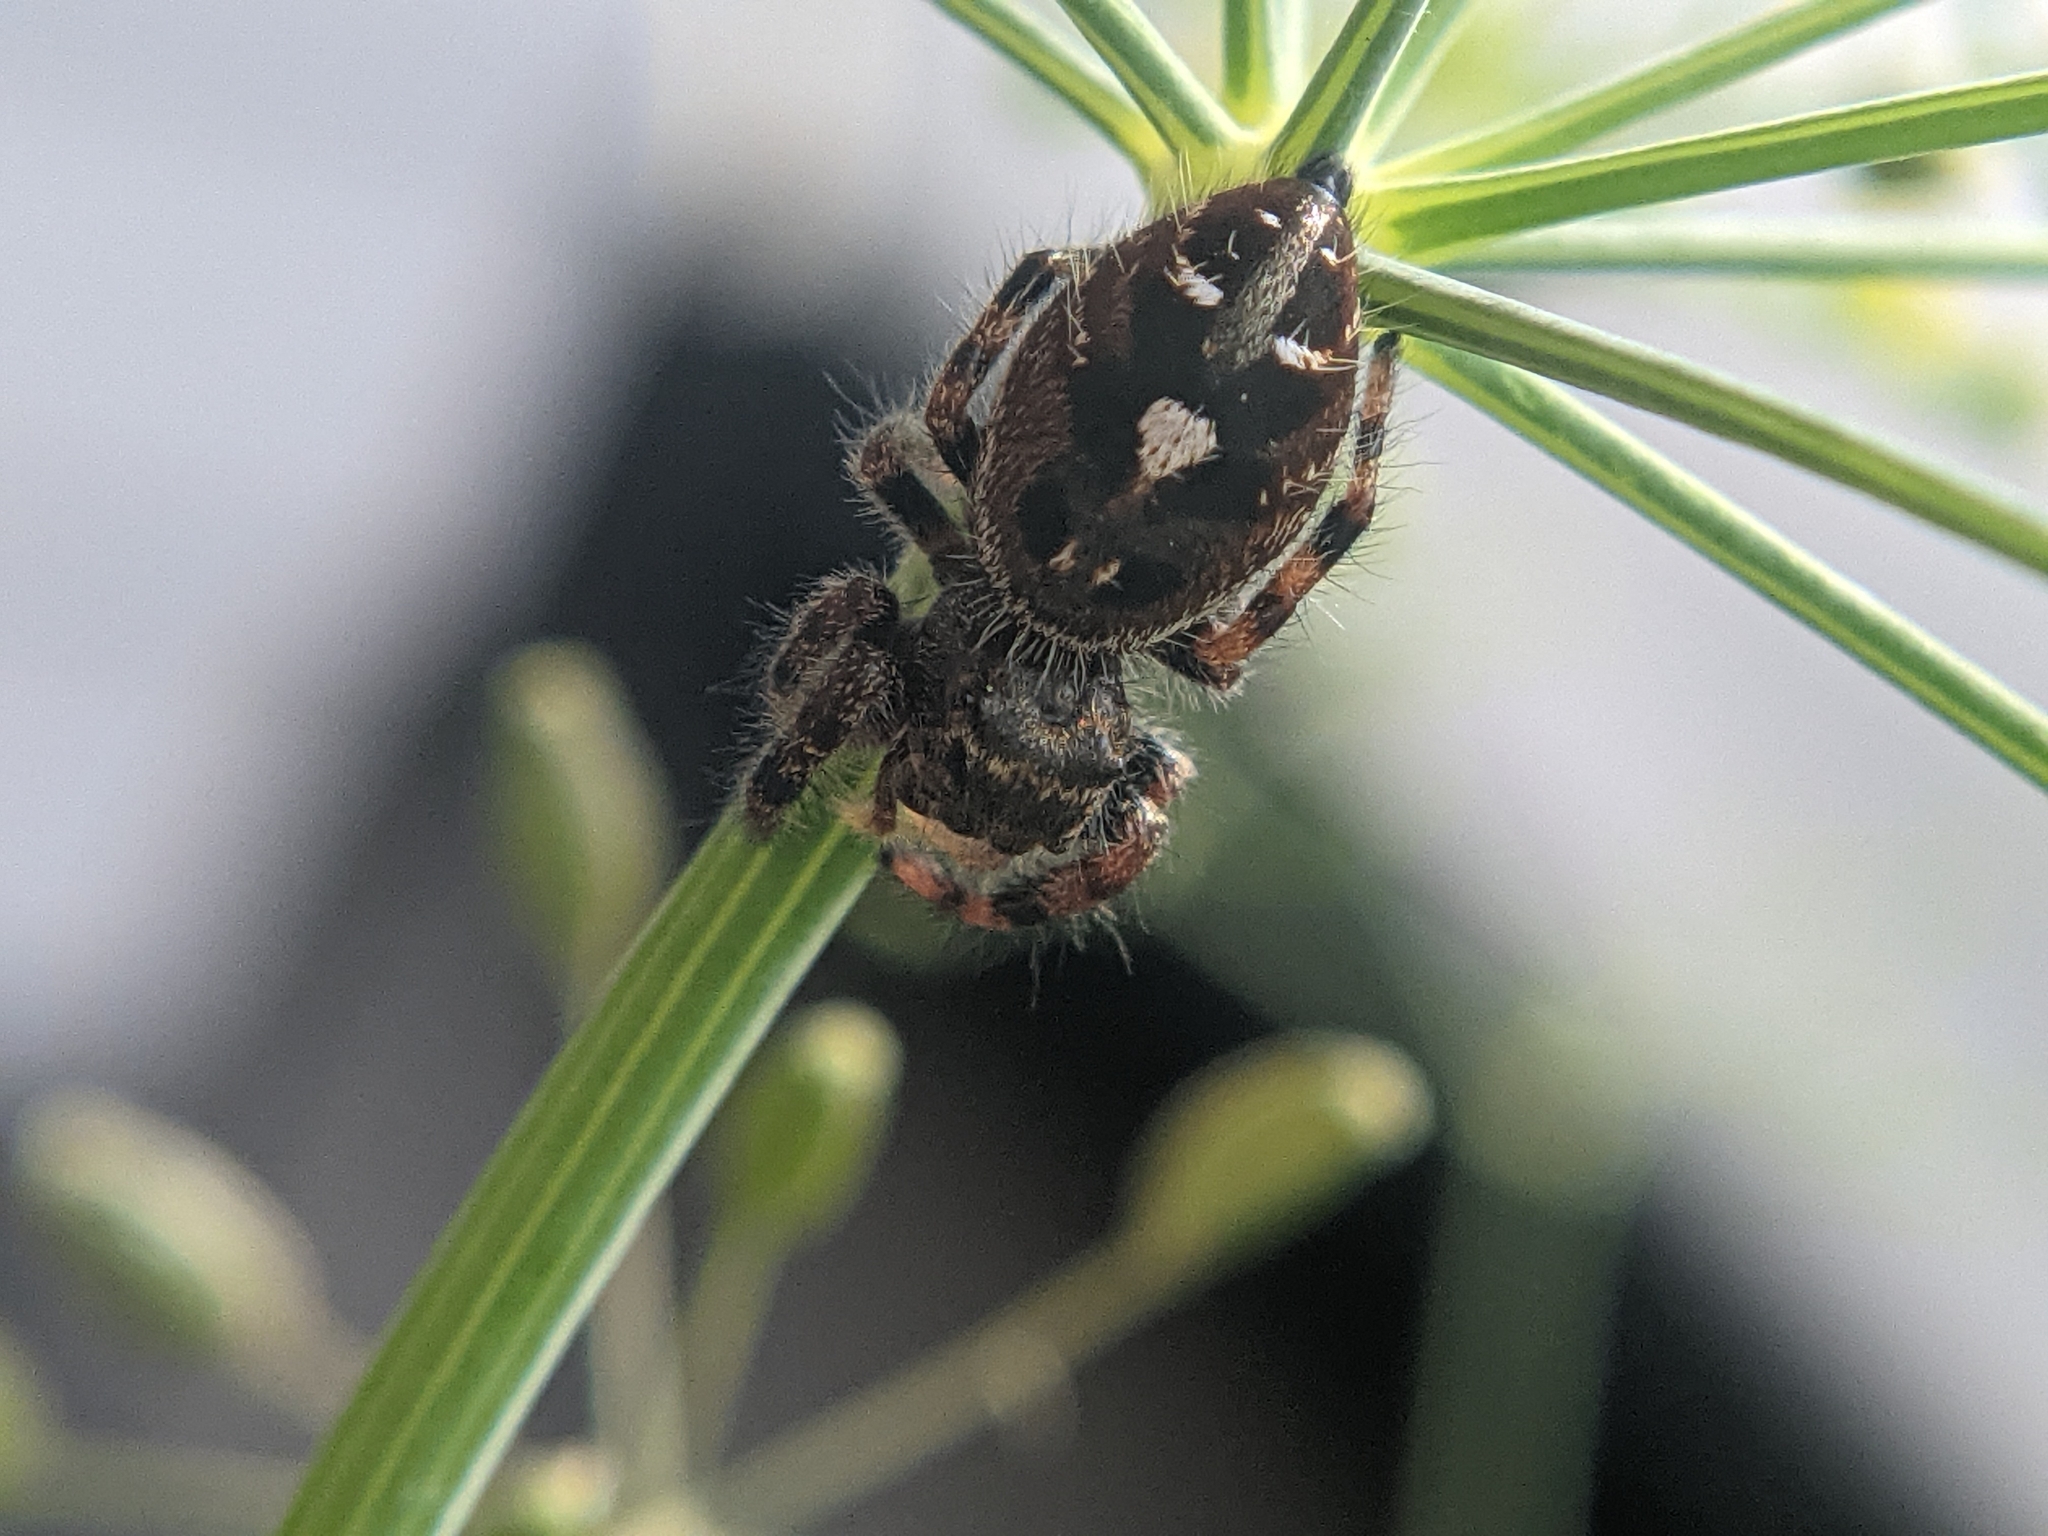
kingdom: Animalia
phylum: Arthropoda
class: Arachnida
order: Araneae
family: Salticidae
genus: Phidippus
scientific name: Phidippus audax
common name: Bold jumper
